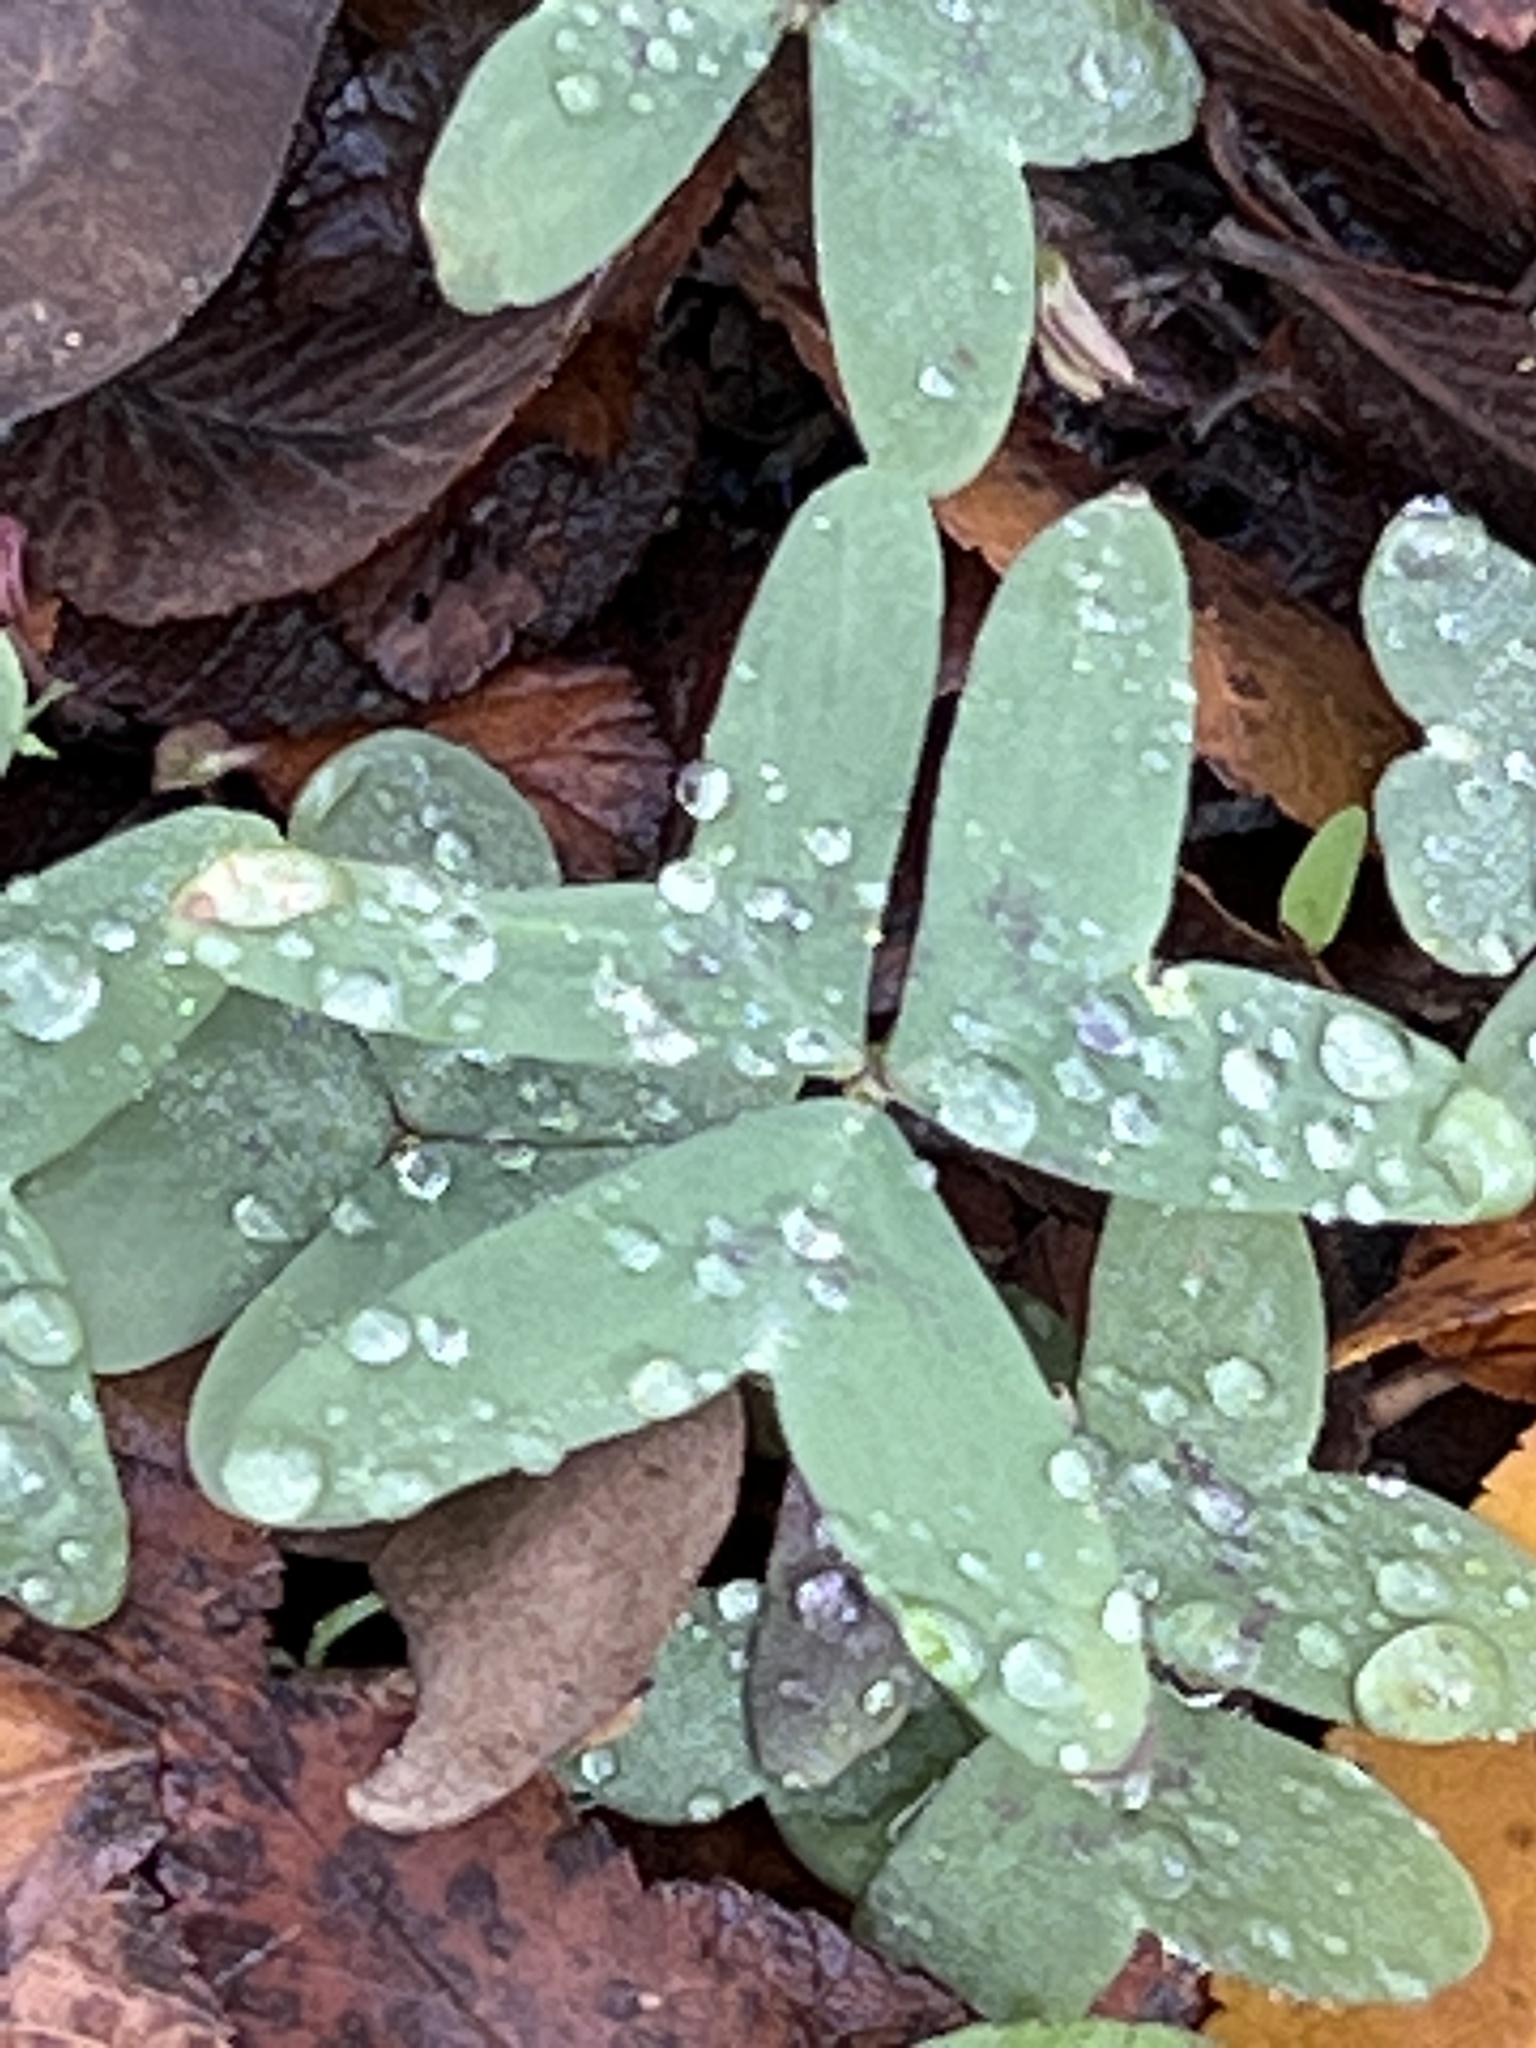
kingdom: Plantae
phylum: Tracheophyta
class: Magnoliopsida
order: Oxalidales
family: Oxalidaceae
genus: Oxalis
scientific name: Oxalis drummondii
